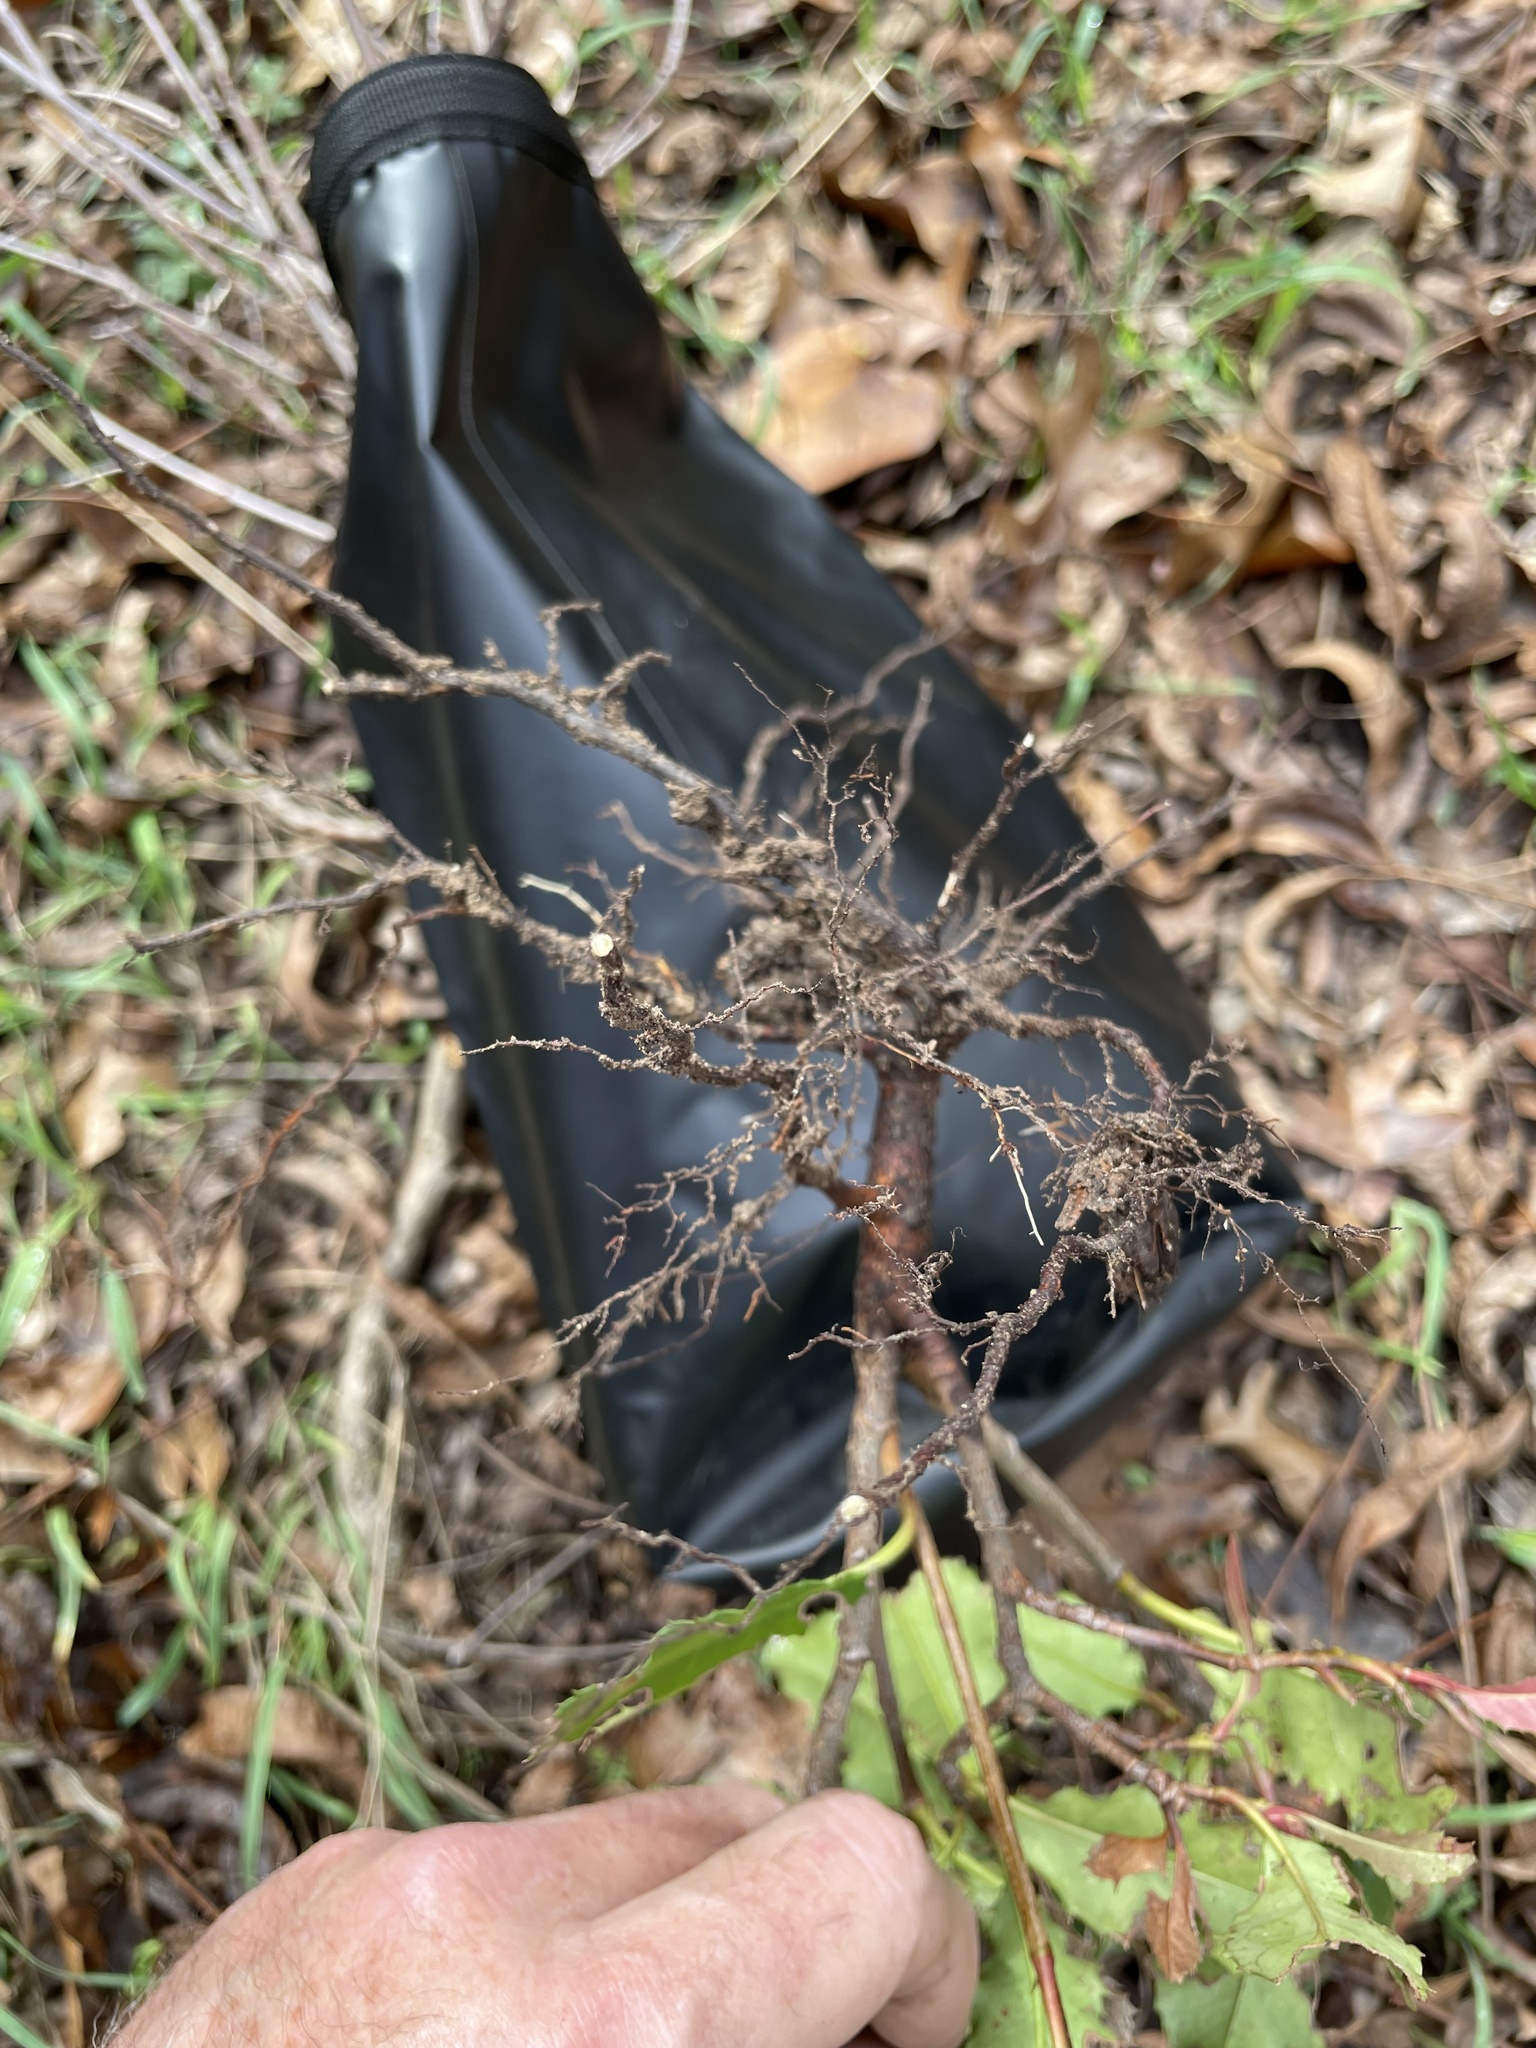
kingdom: Plantae
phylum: Tracheophyta
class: Magnoliopsida
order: Rosales
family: Rosaceae
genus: Photinia
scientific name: Photinia serratifolia
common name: Taiwanese photinia
